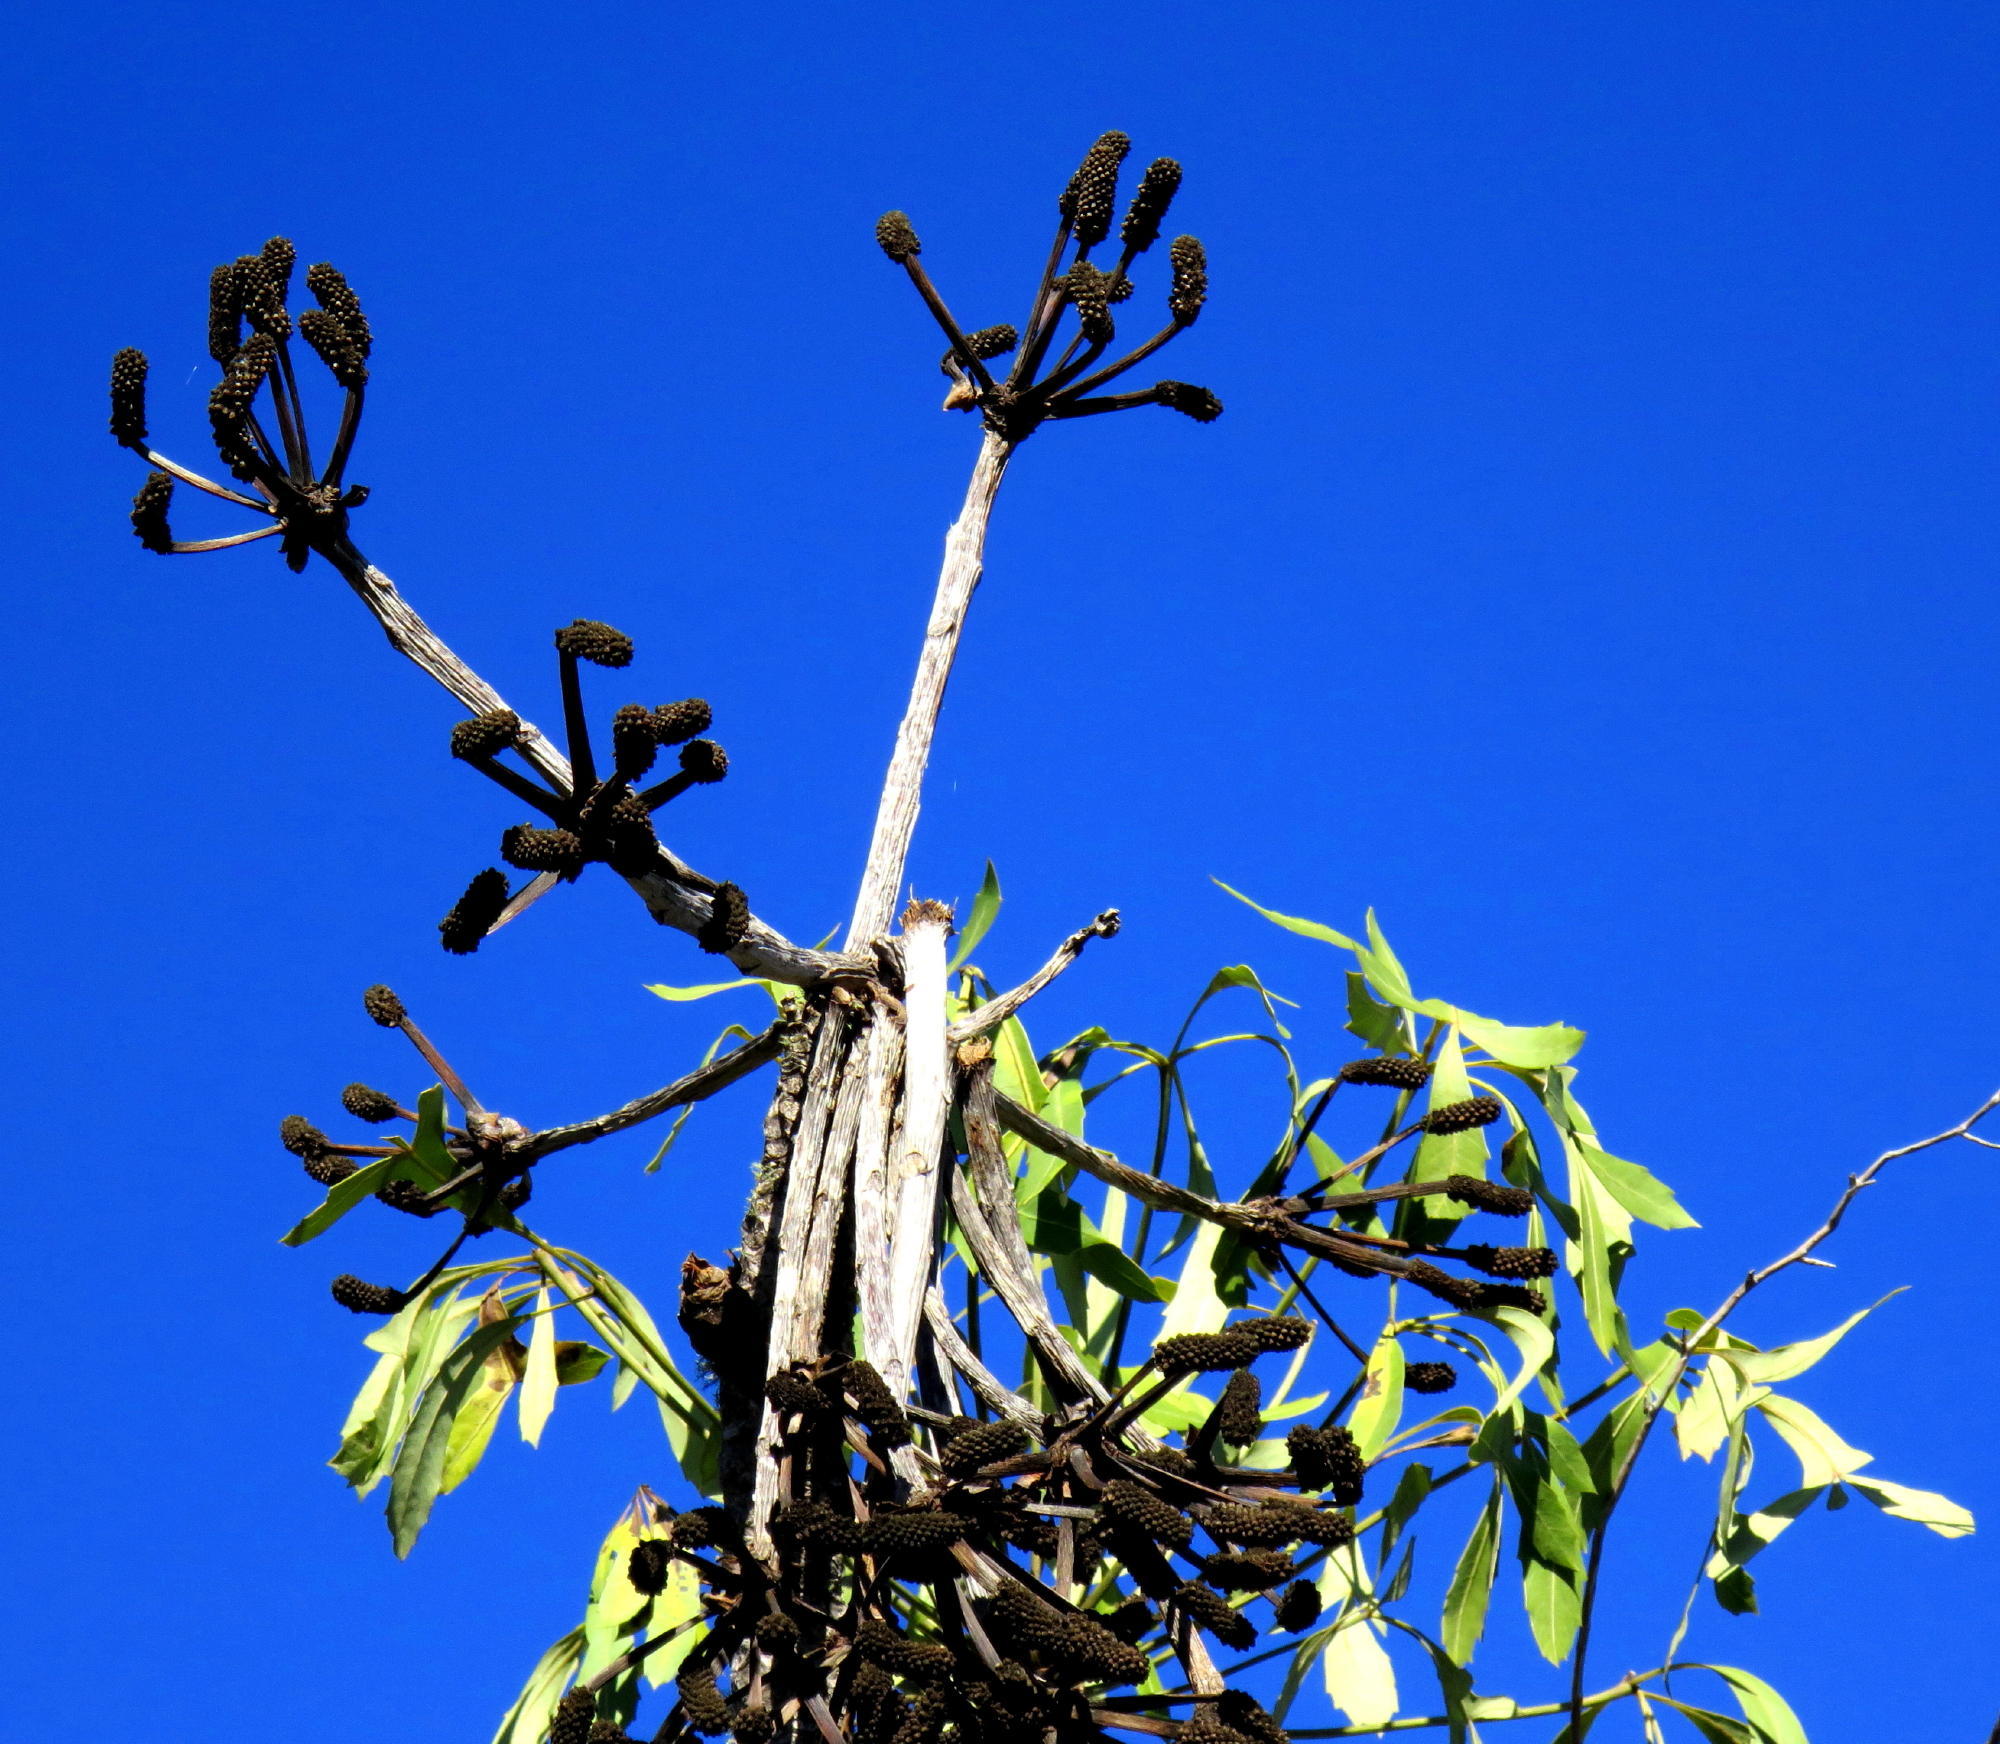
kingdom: Plantae
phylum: Tracheophyta
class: Magnoliopsida
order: Apiales
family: Araliaceae
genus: Cussonia
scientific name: Cussonia spicata
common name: Common cabbagetree
